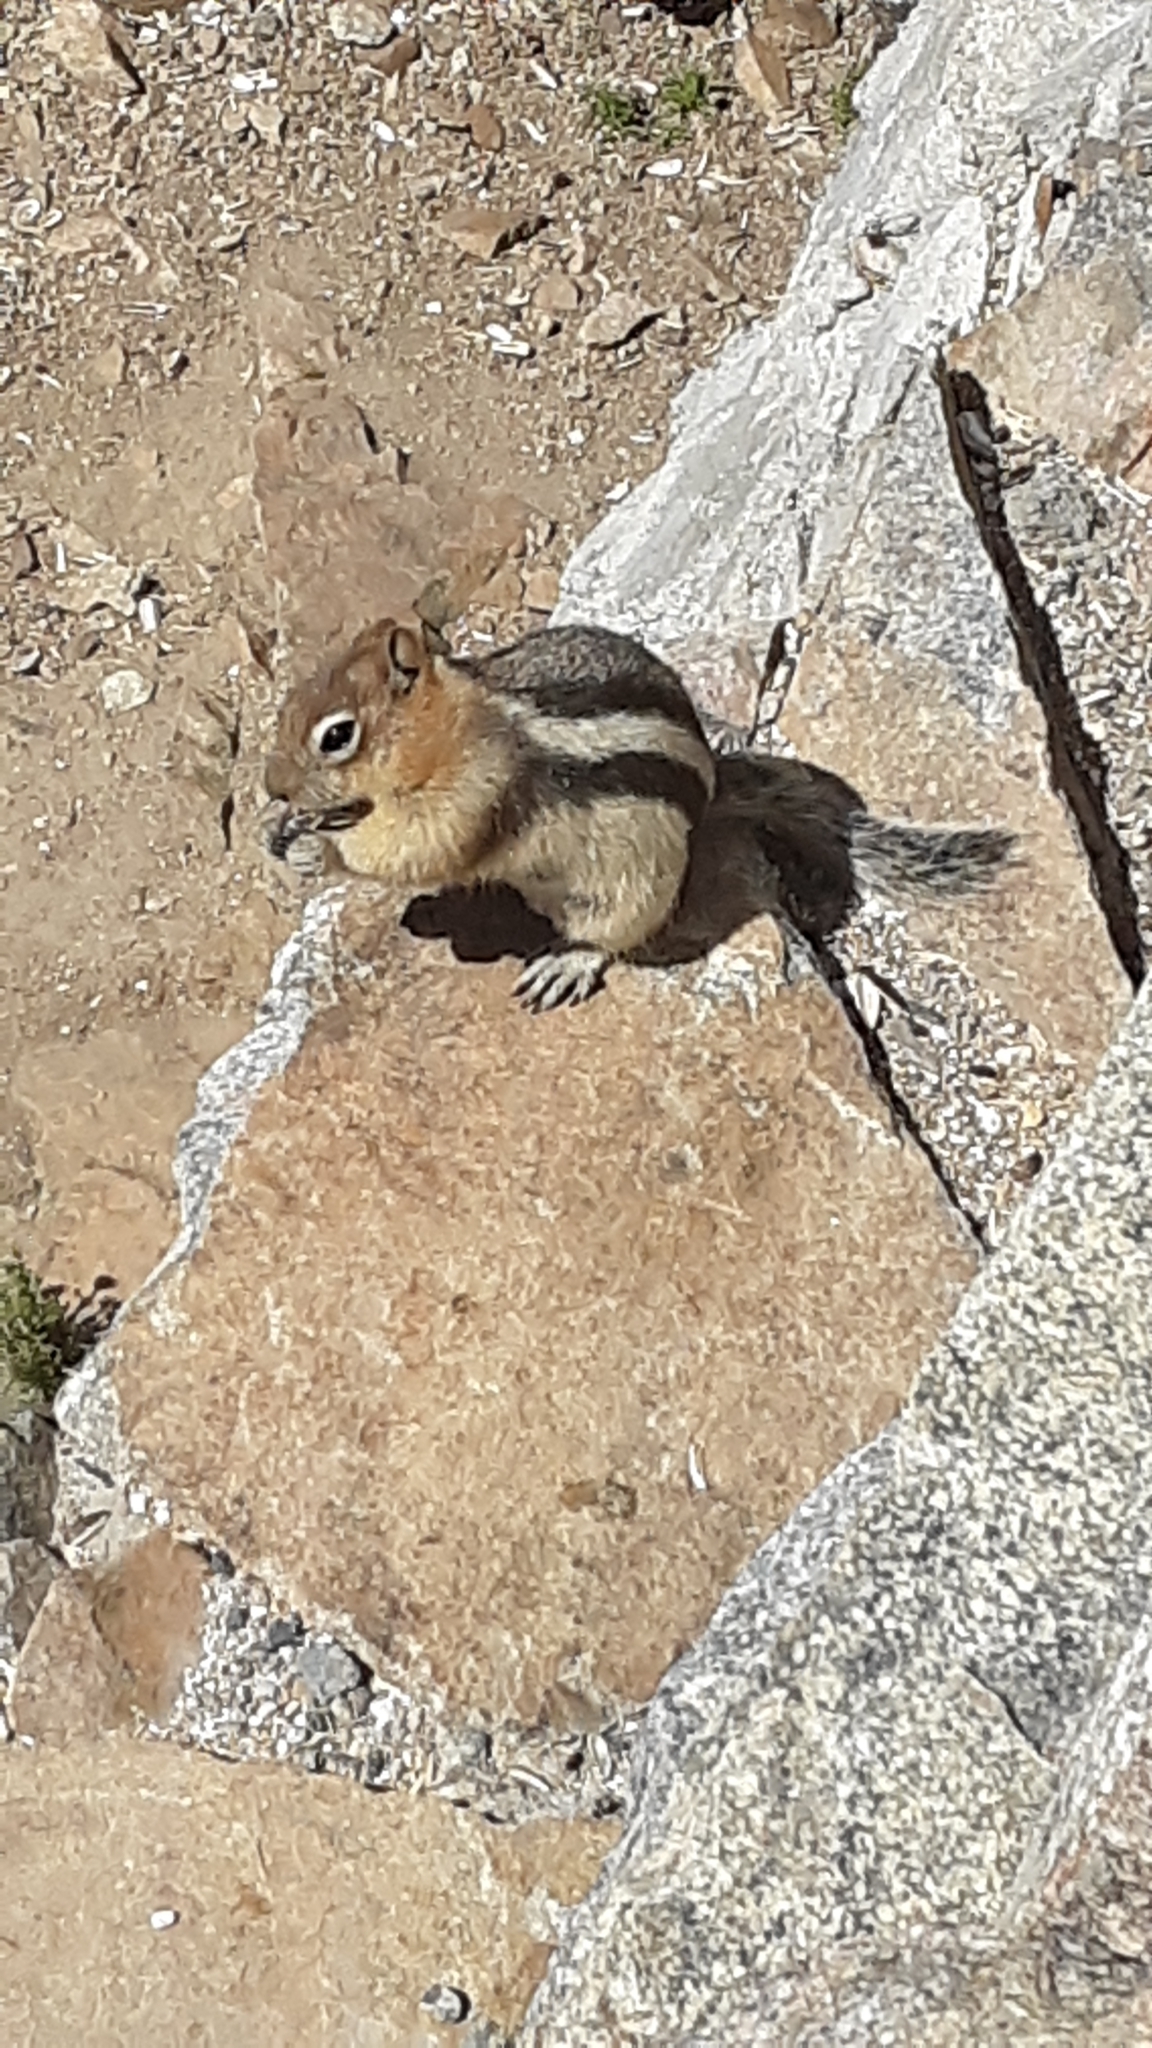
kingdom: Animalia
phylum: Chordata
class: Mammalia
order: Rodentia
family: Sciuridae
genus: Callospermophilus
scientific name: Callospermophilus lateralis
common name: Golden-mantled ground squirrel
